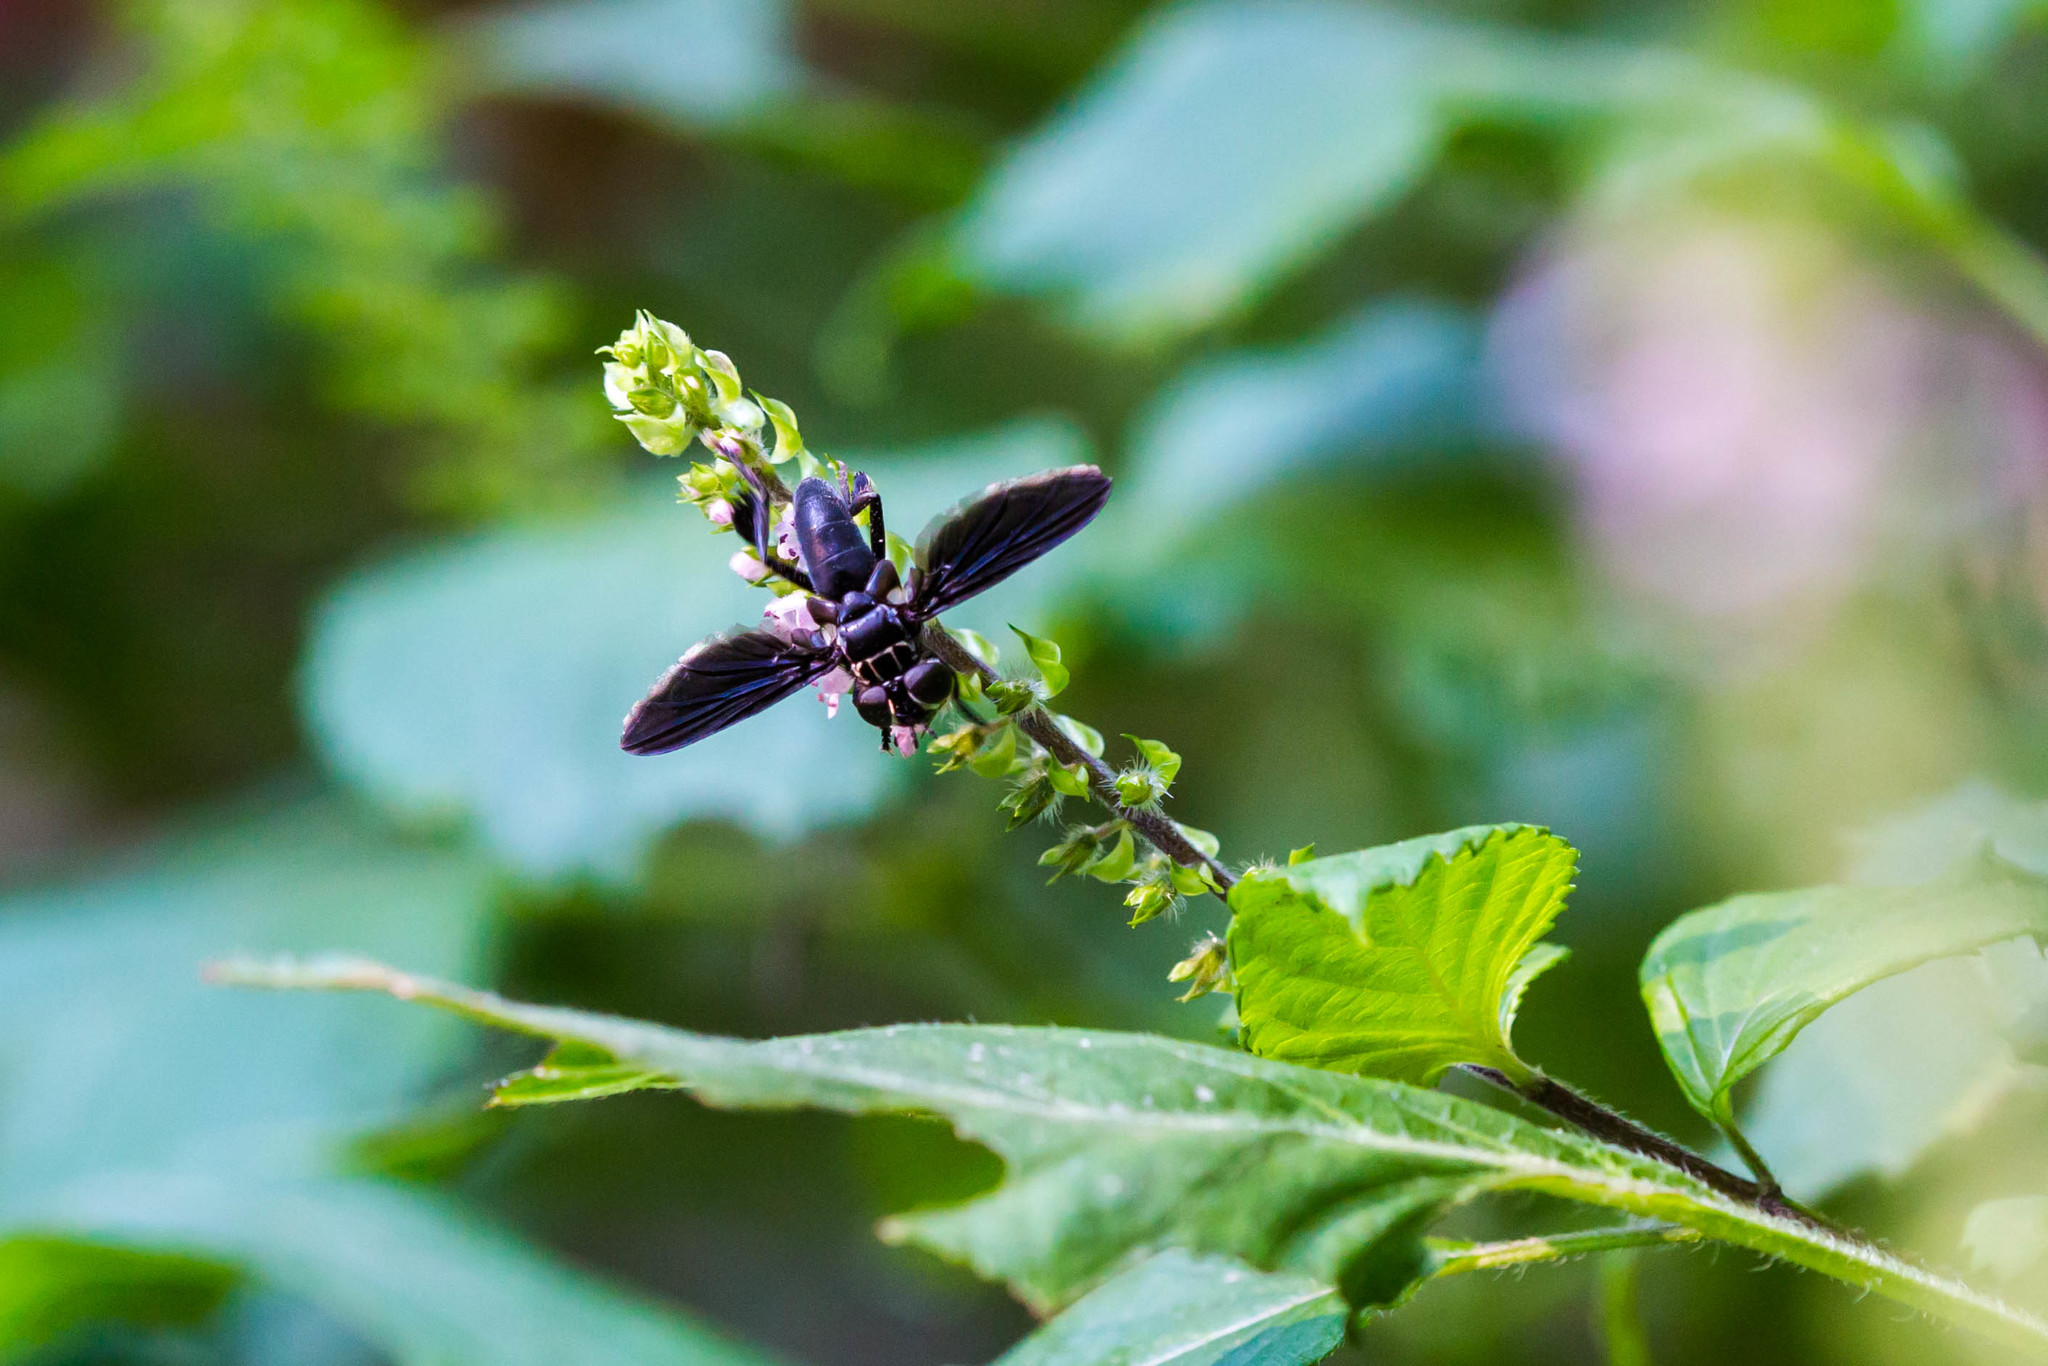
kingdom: Animalia
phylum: Arthropoda
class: Insecta
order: Diptera
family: Tachinidae
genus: Trichopoda
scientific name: Trichopoda lanipes
